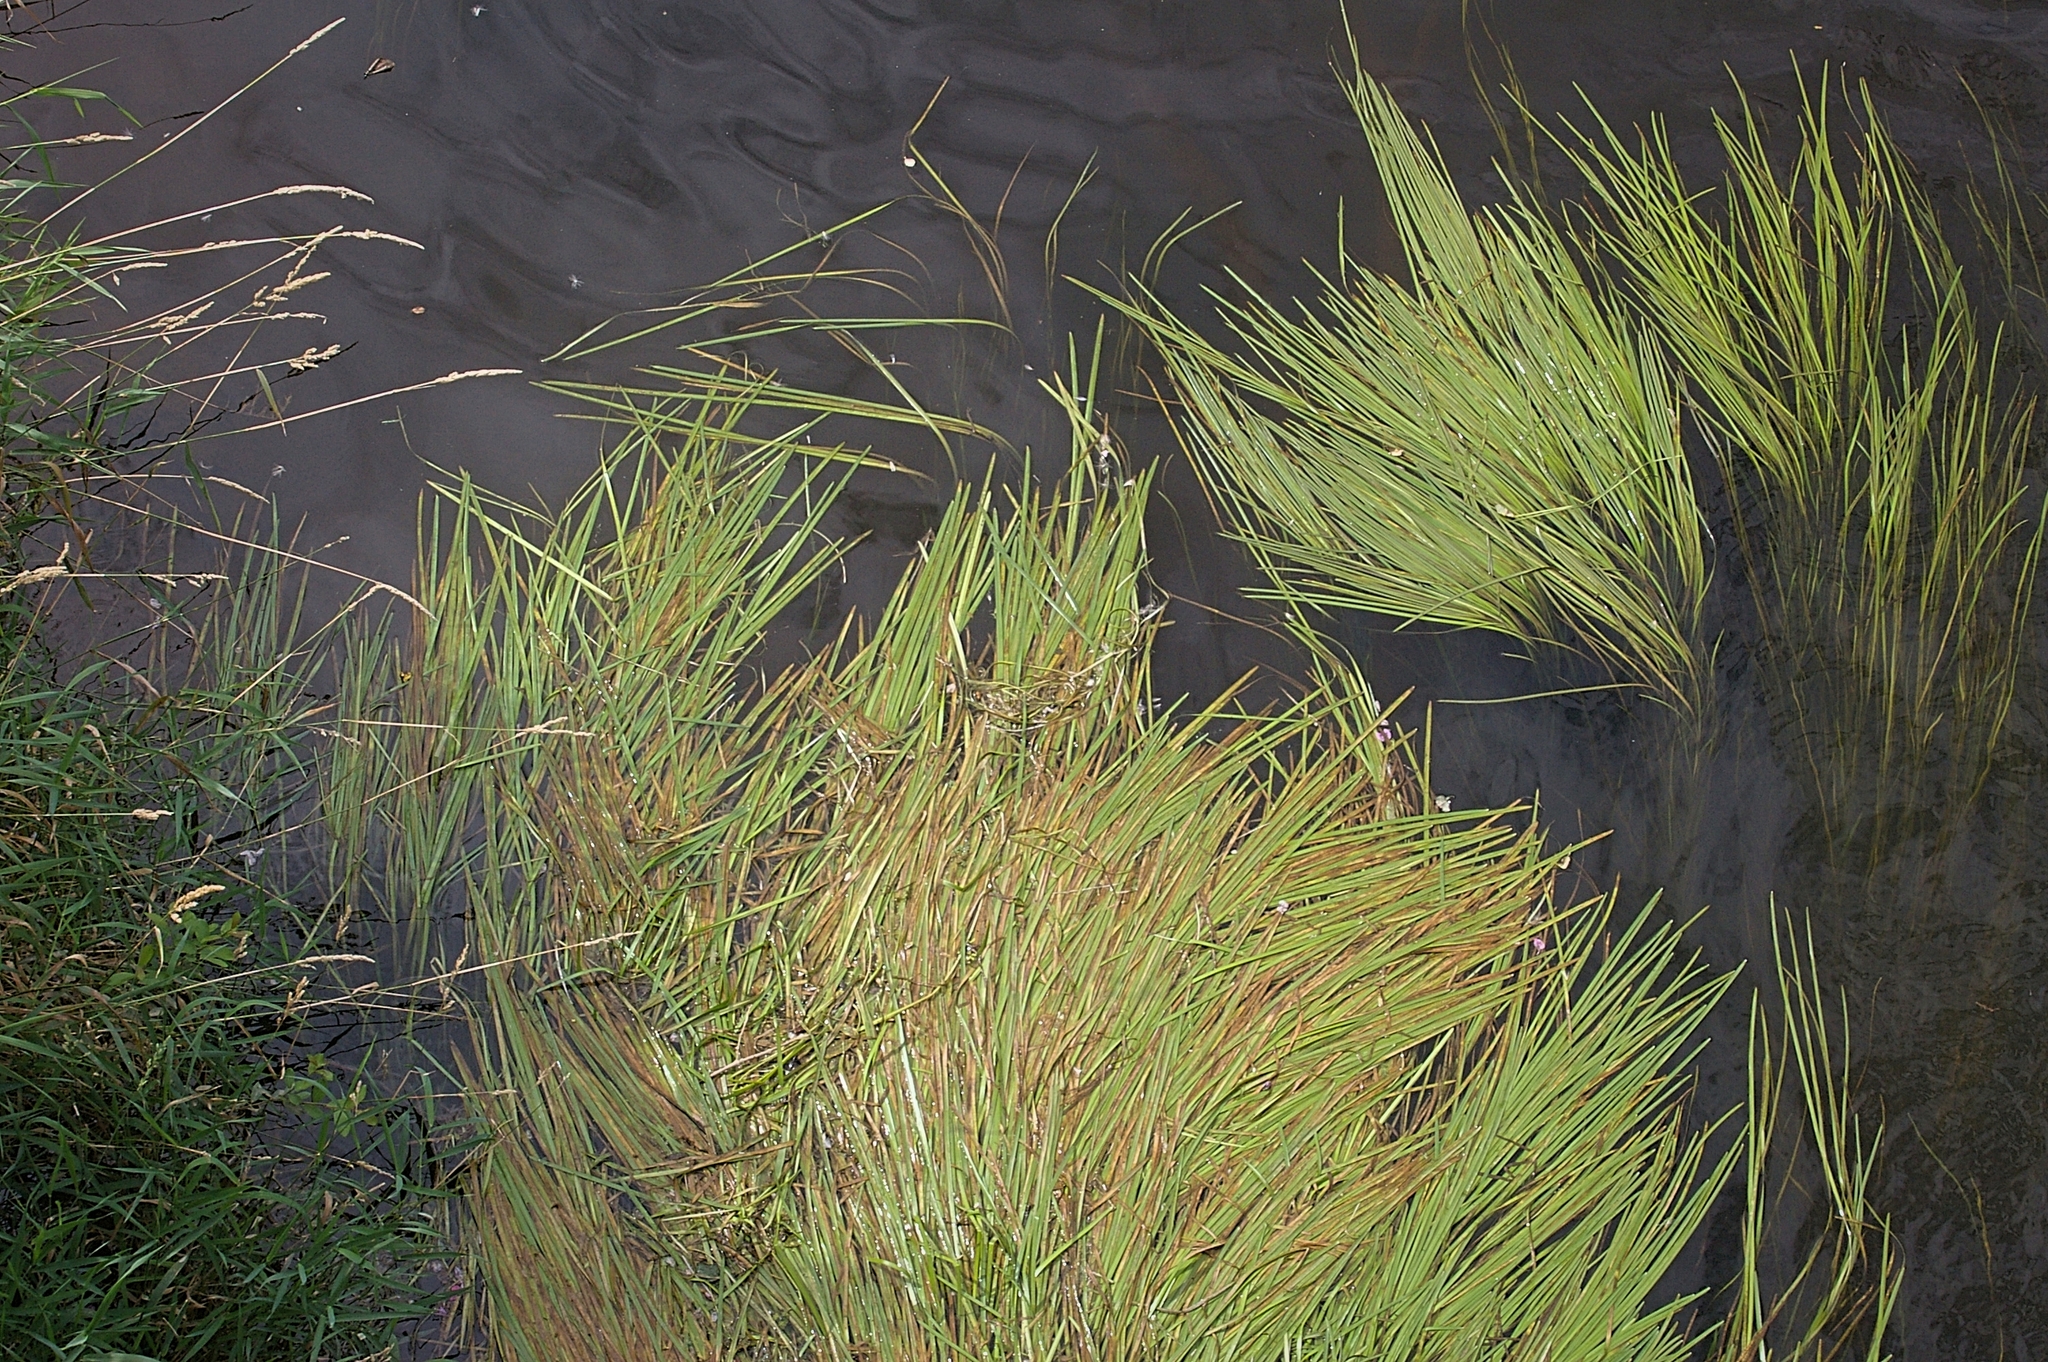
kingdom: Plantae
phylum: Tracheophyta
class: Liliopsida
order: Poales
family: Poaceae
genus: Glyceria
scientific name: Glyceria fluitans
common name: Floating sweet-grass
